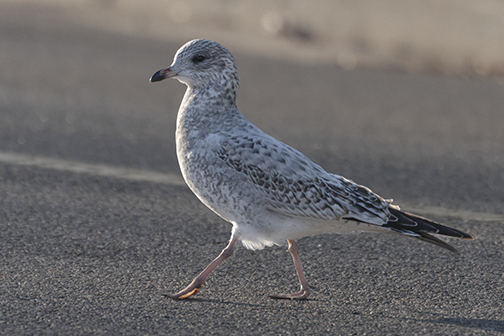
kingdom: Animalia
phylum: Chordata
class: Aves
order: Charadriiformes
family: Laridae
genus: Larus
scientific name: Larus delawarensis
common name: Ring-billed gull
